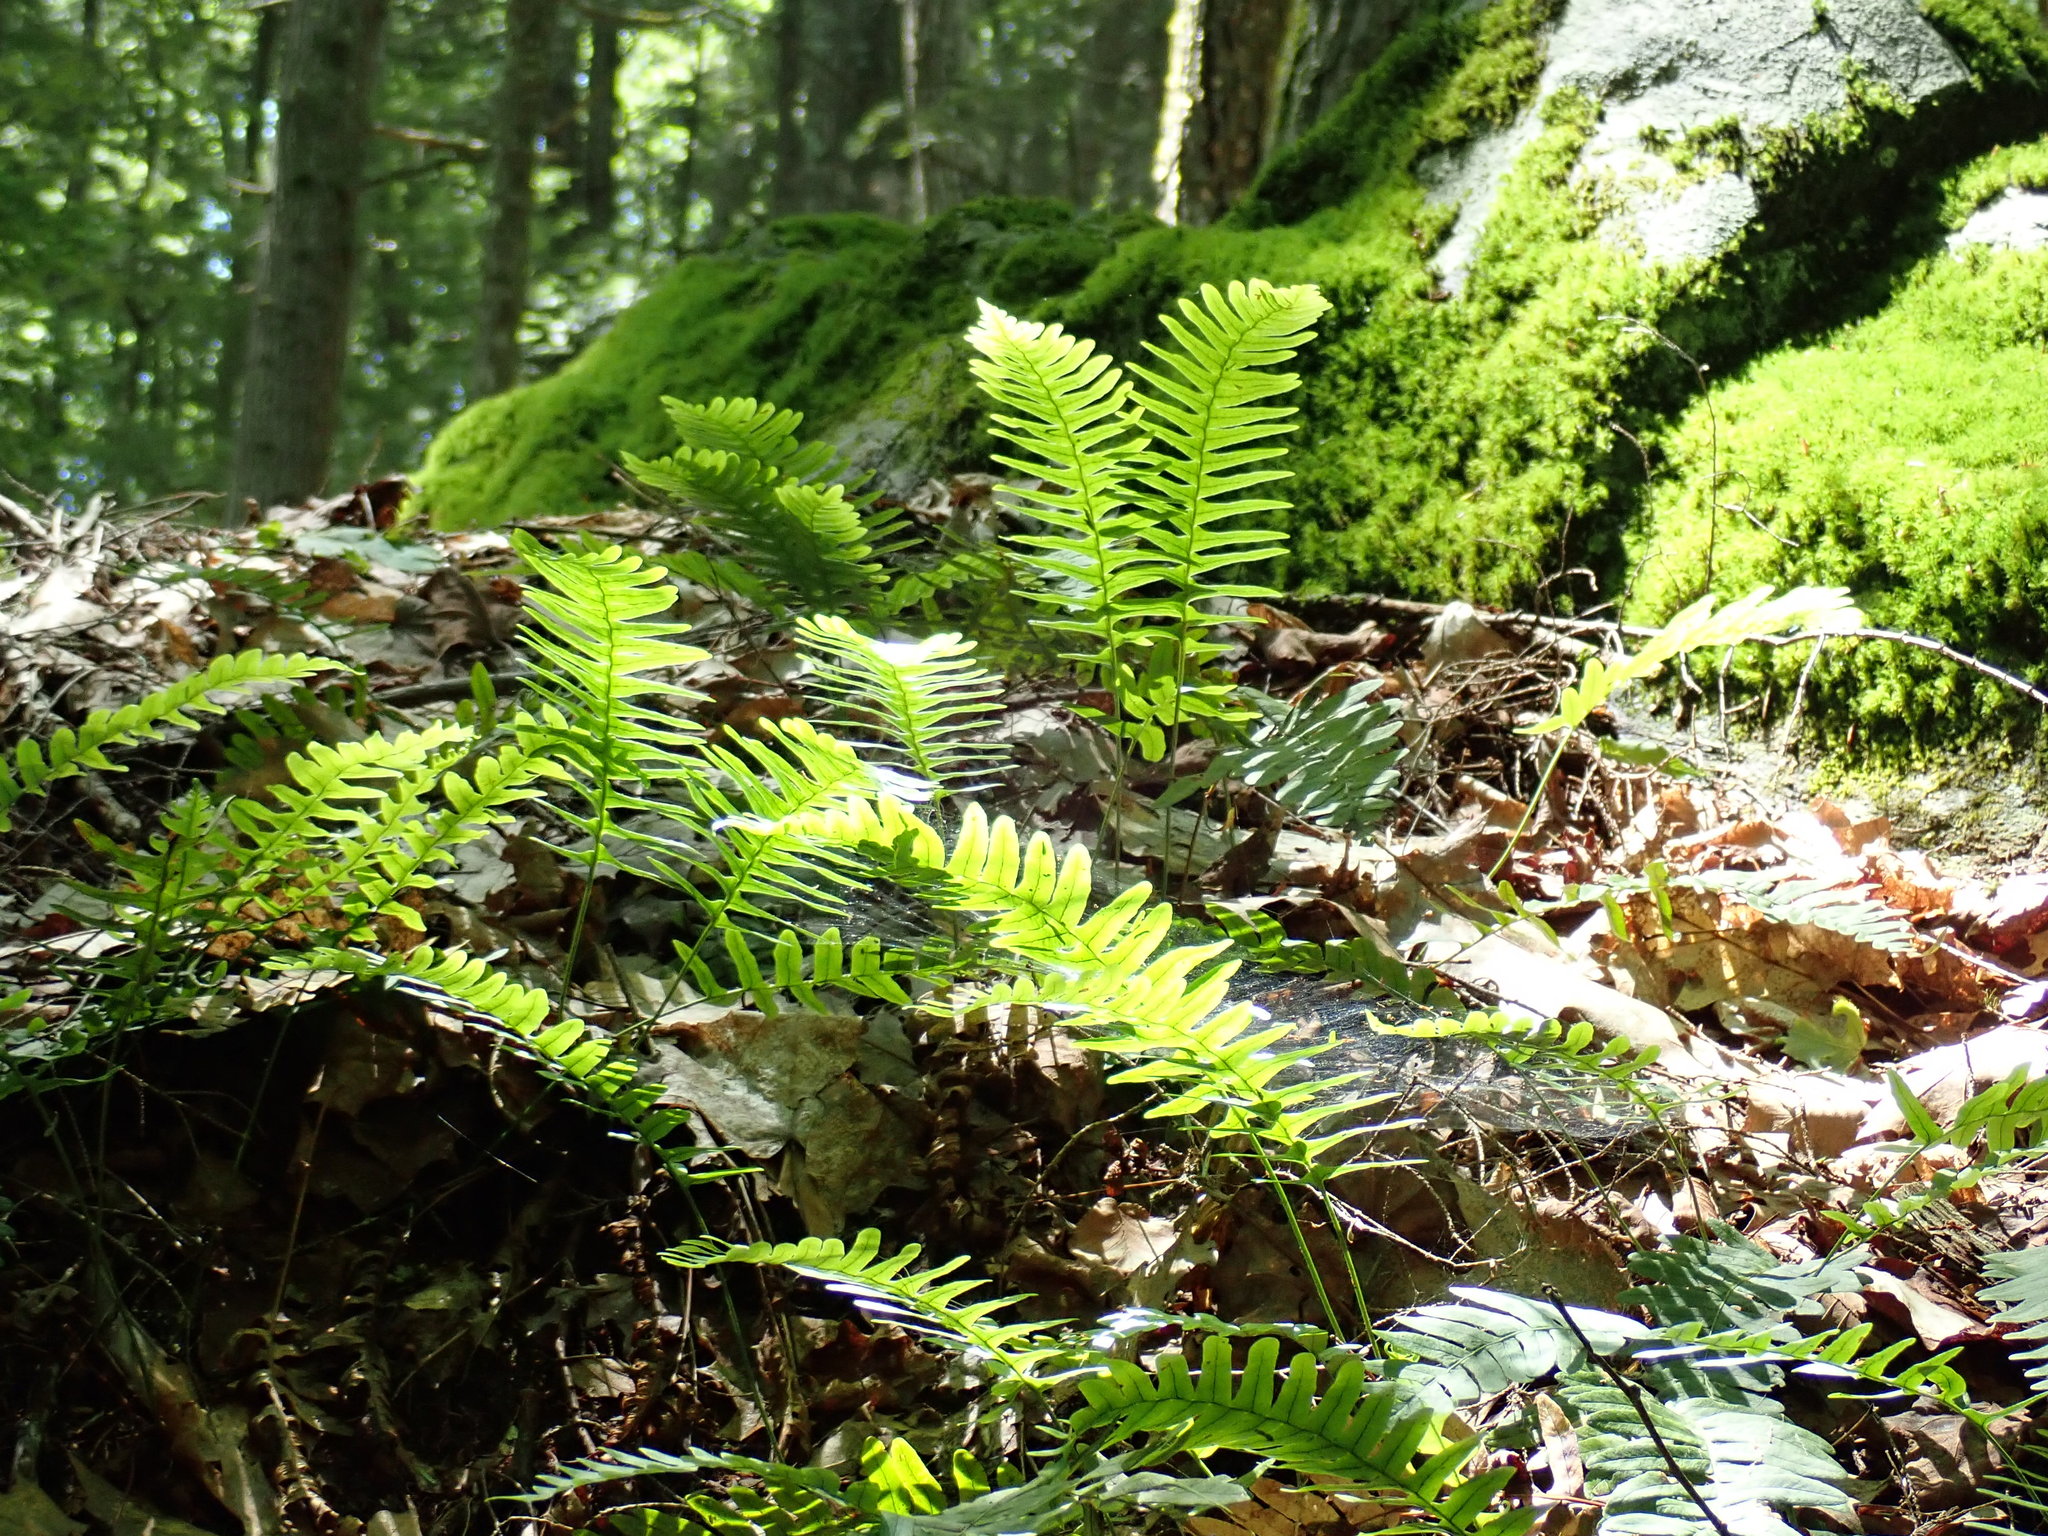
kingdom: Plantae
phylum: Tracheophyta
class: Polypodiopsida
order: Polypodiales
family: Polypodiaceae
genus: Polypodium
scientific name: Polypodium
